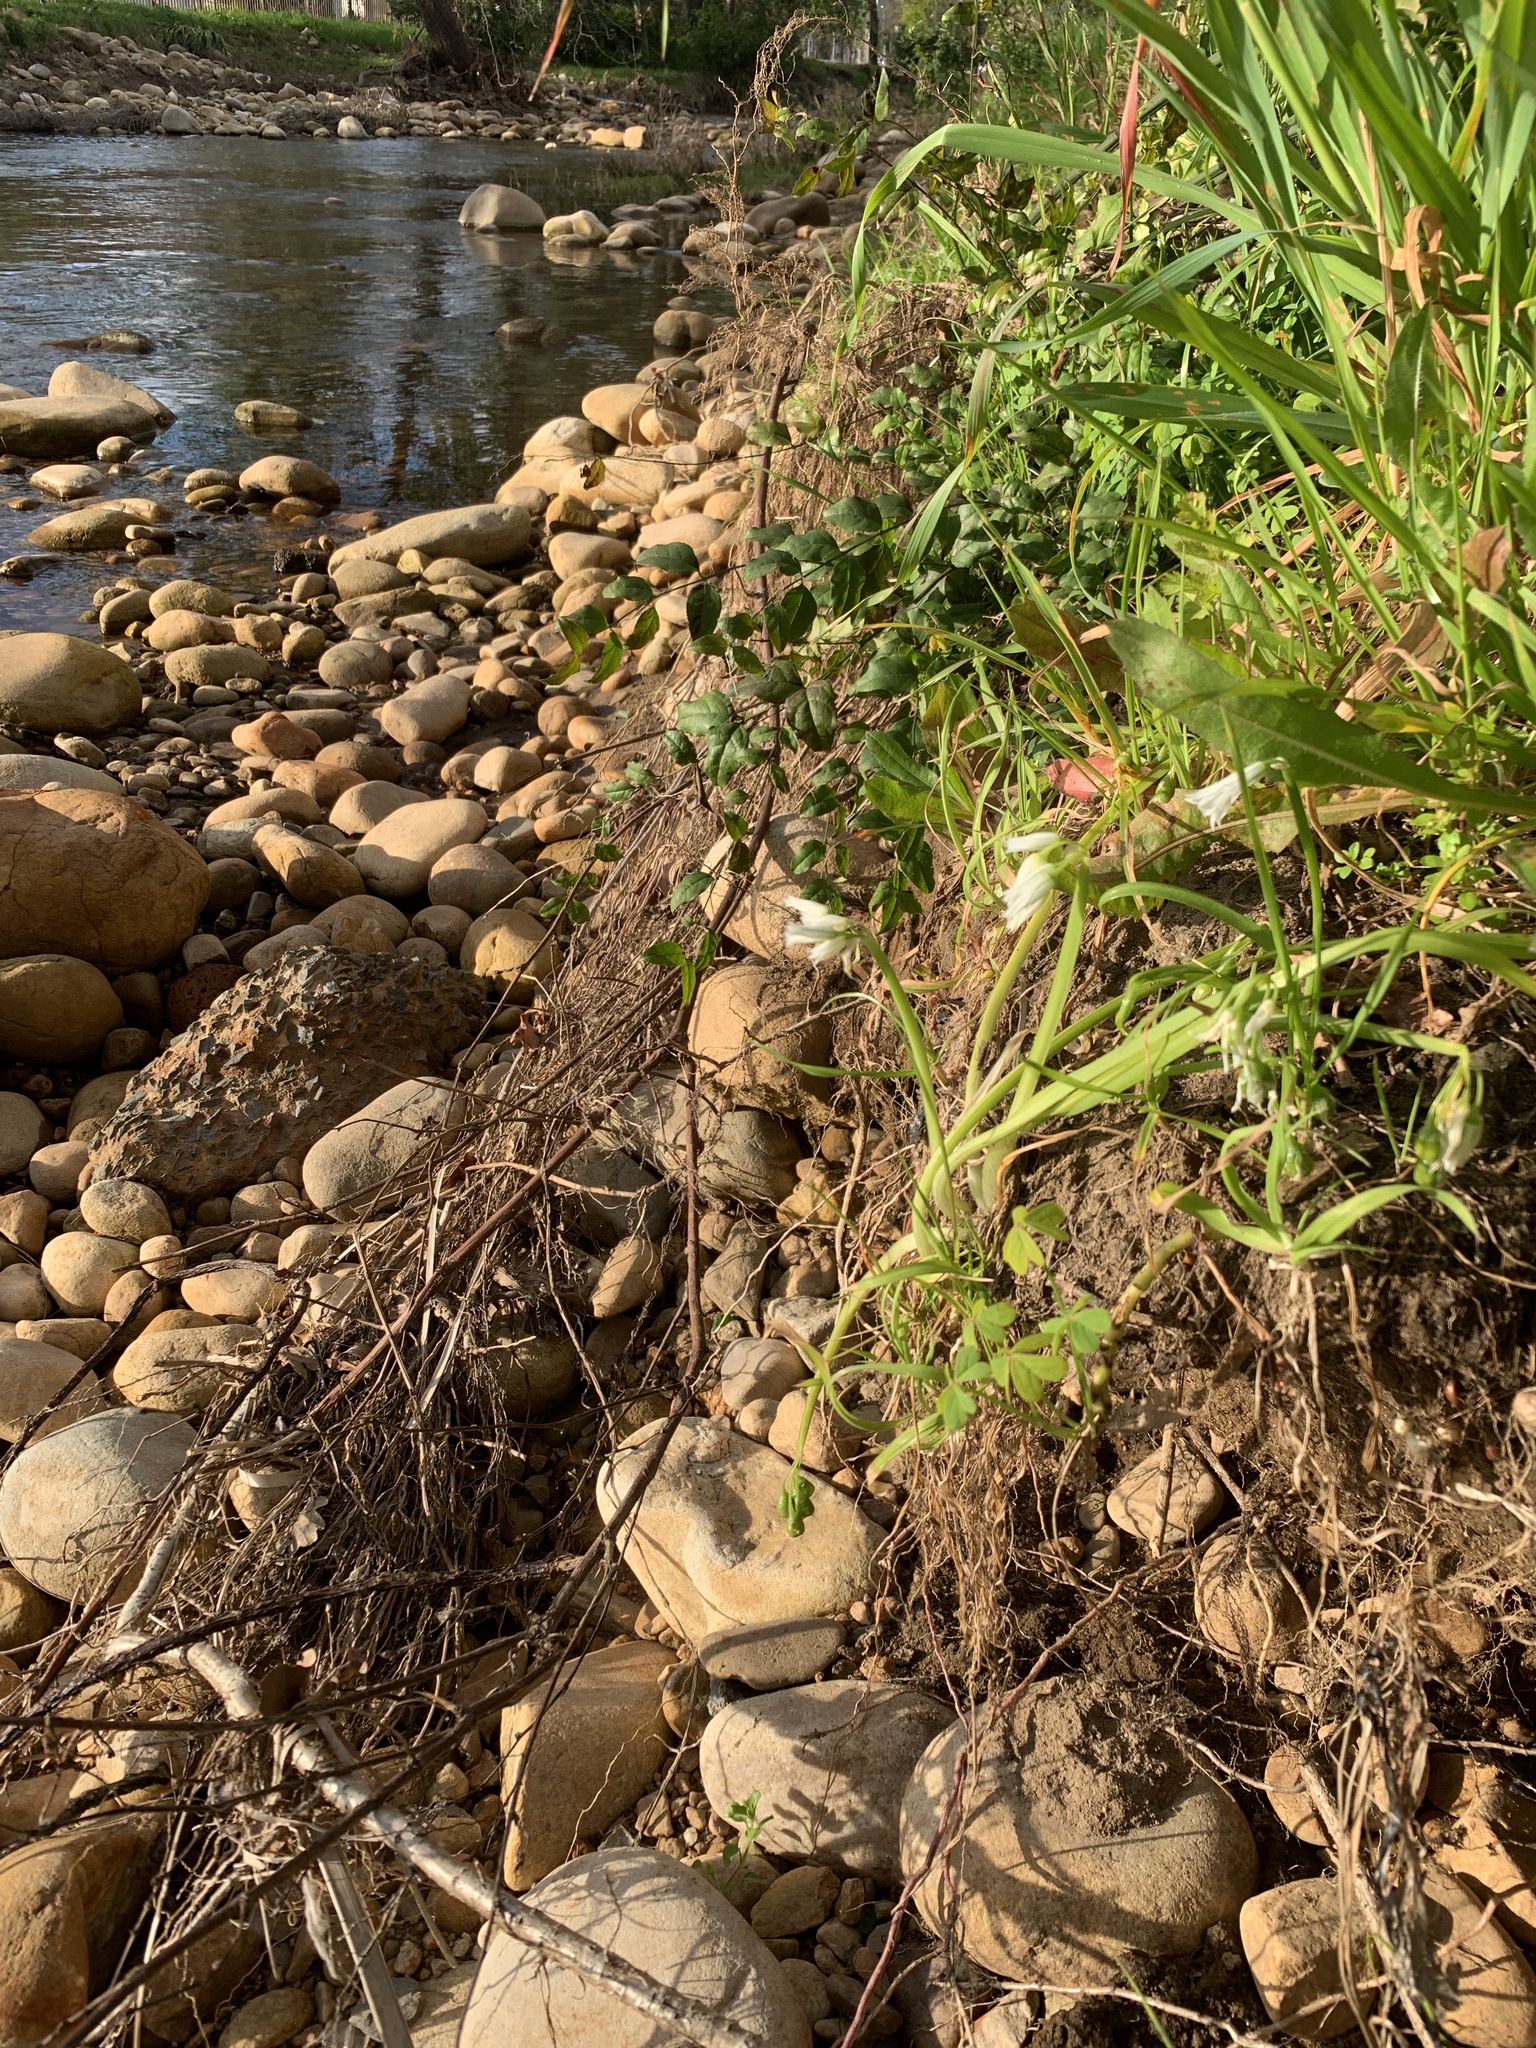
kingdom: Plantae
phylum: Tracheophyta
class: Liliopsida
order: Asparagales
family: Amaryllidaceae
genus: Allium
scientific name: Allium triquetrum
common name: Three-cornered garlic
